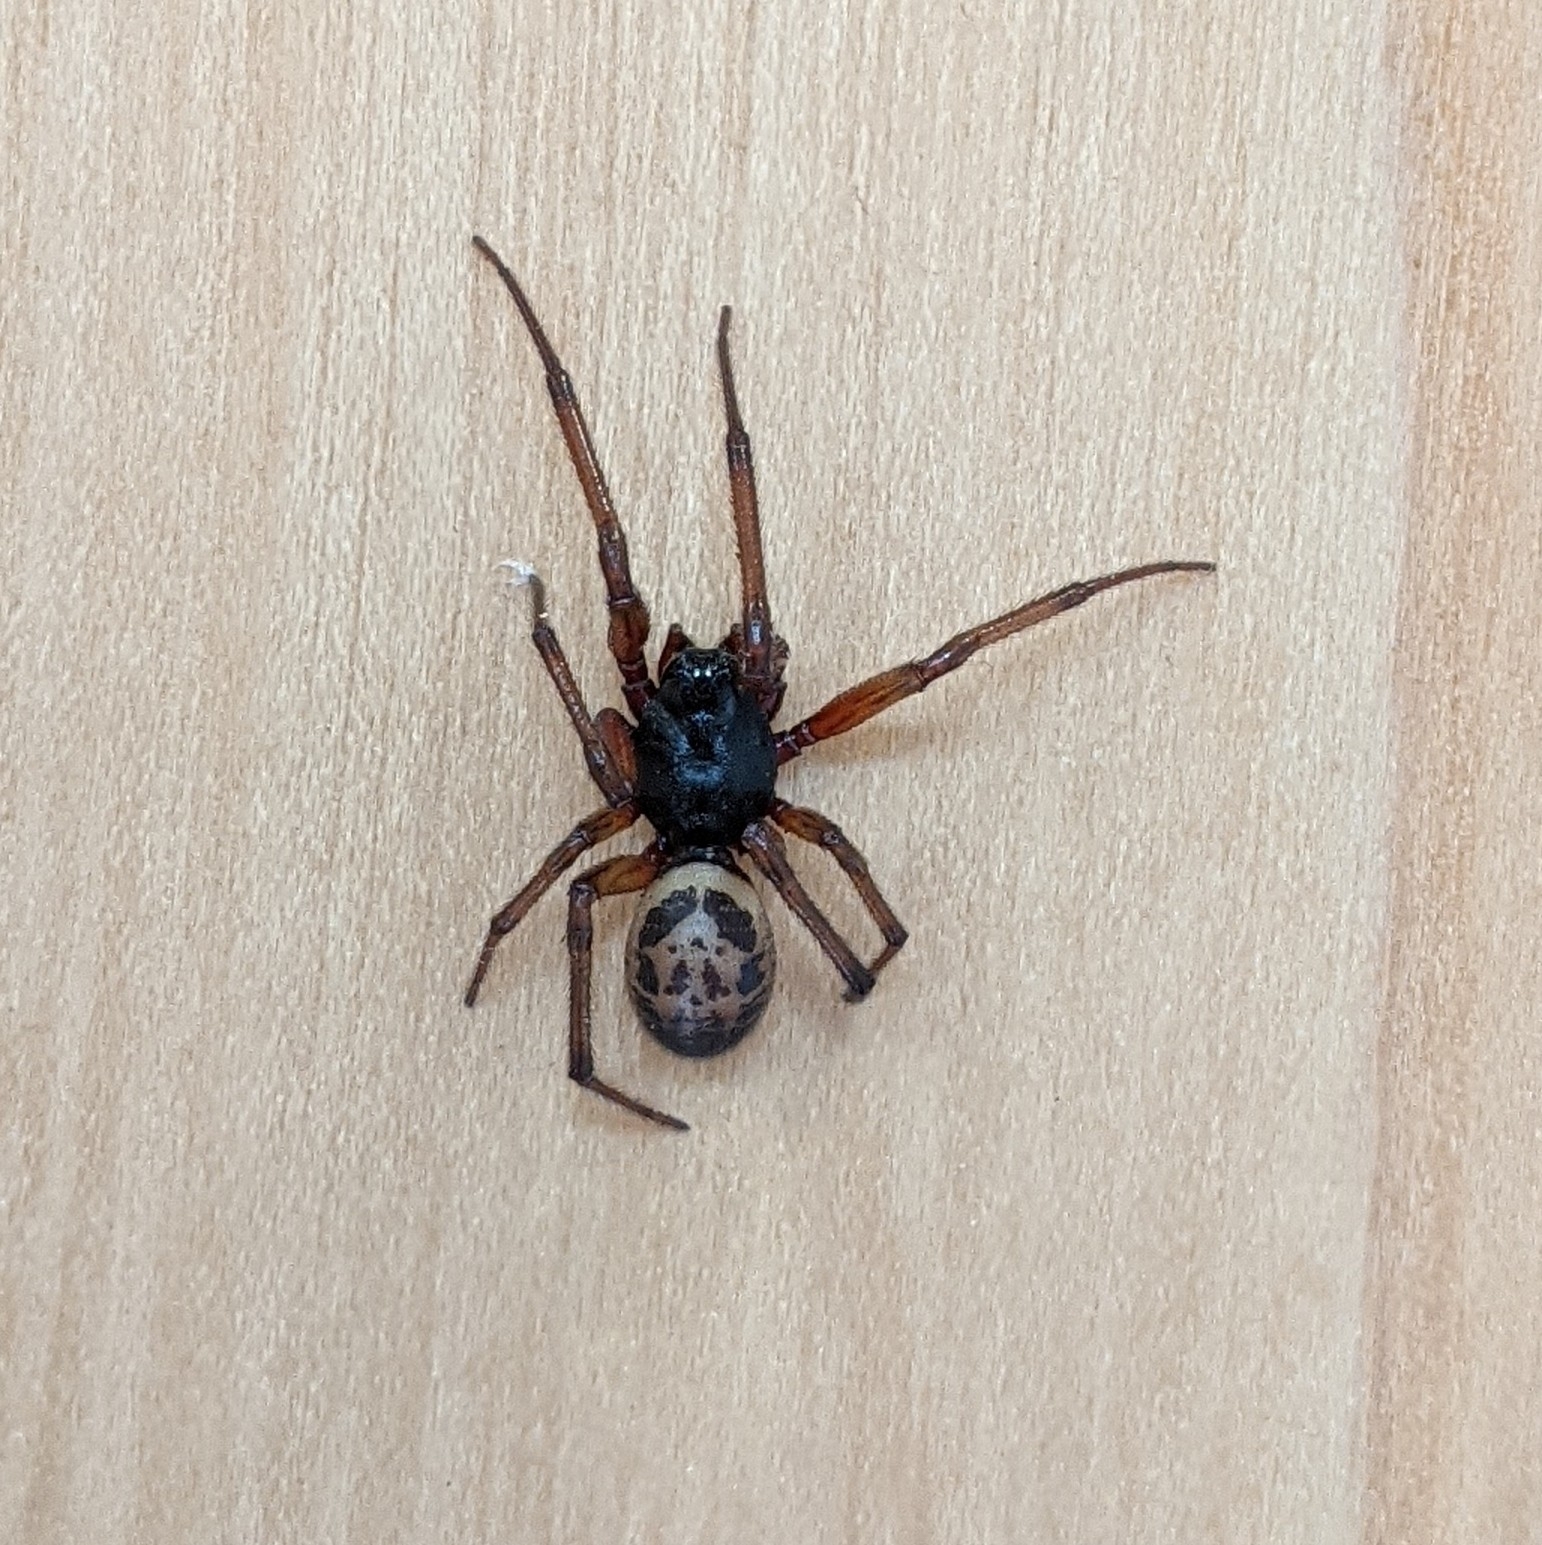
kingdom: Animalia
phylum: Arthropoda
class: Arachnida
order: Araneae
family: Theridiidae
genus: Steatoda
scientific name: Steatoda nobilis
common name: Cobweb weaver
